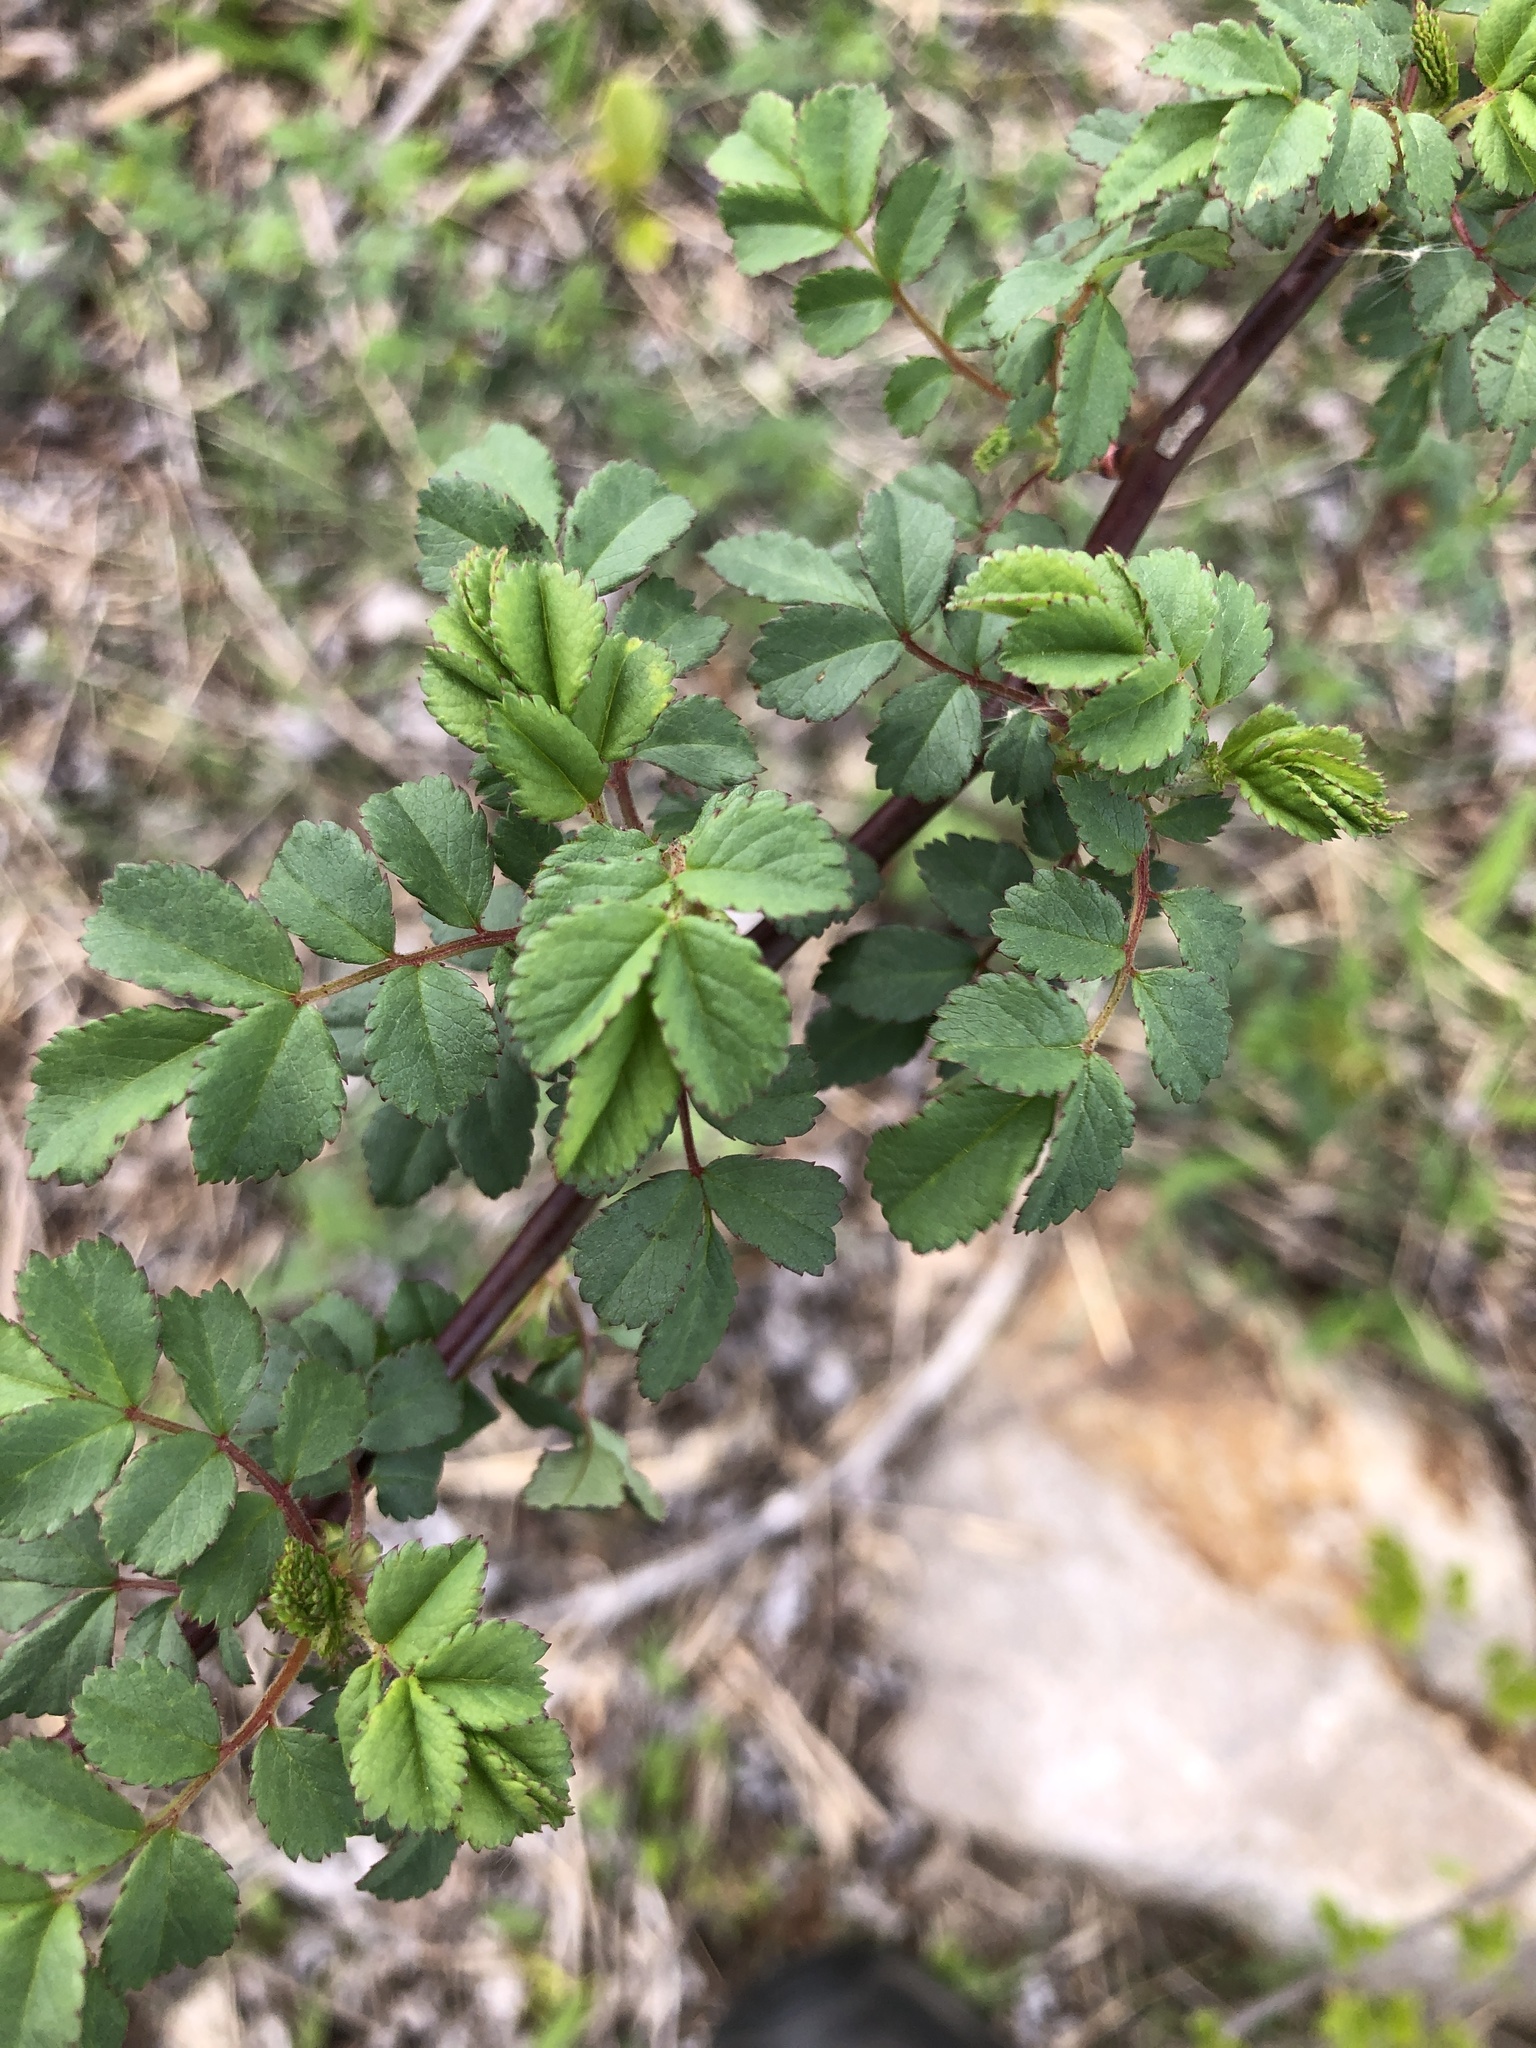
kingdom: Plantae
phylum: Tracheophyta
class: Magnoliopsida
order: Rosales
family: Rosaceae
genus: Rosa
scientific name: Rosa multiflora
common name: Multiflora rose
